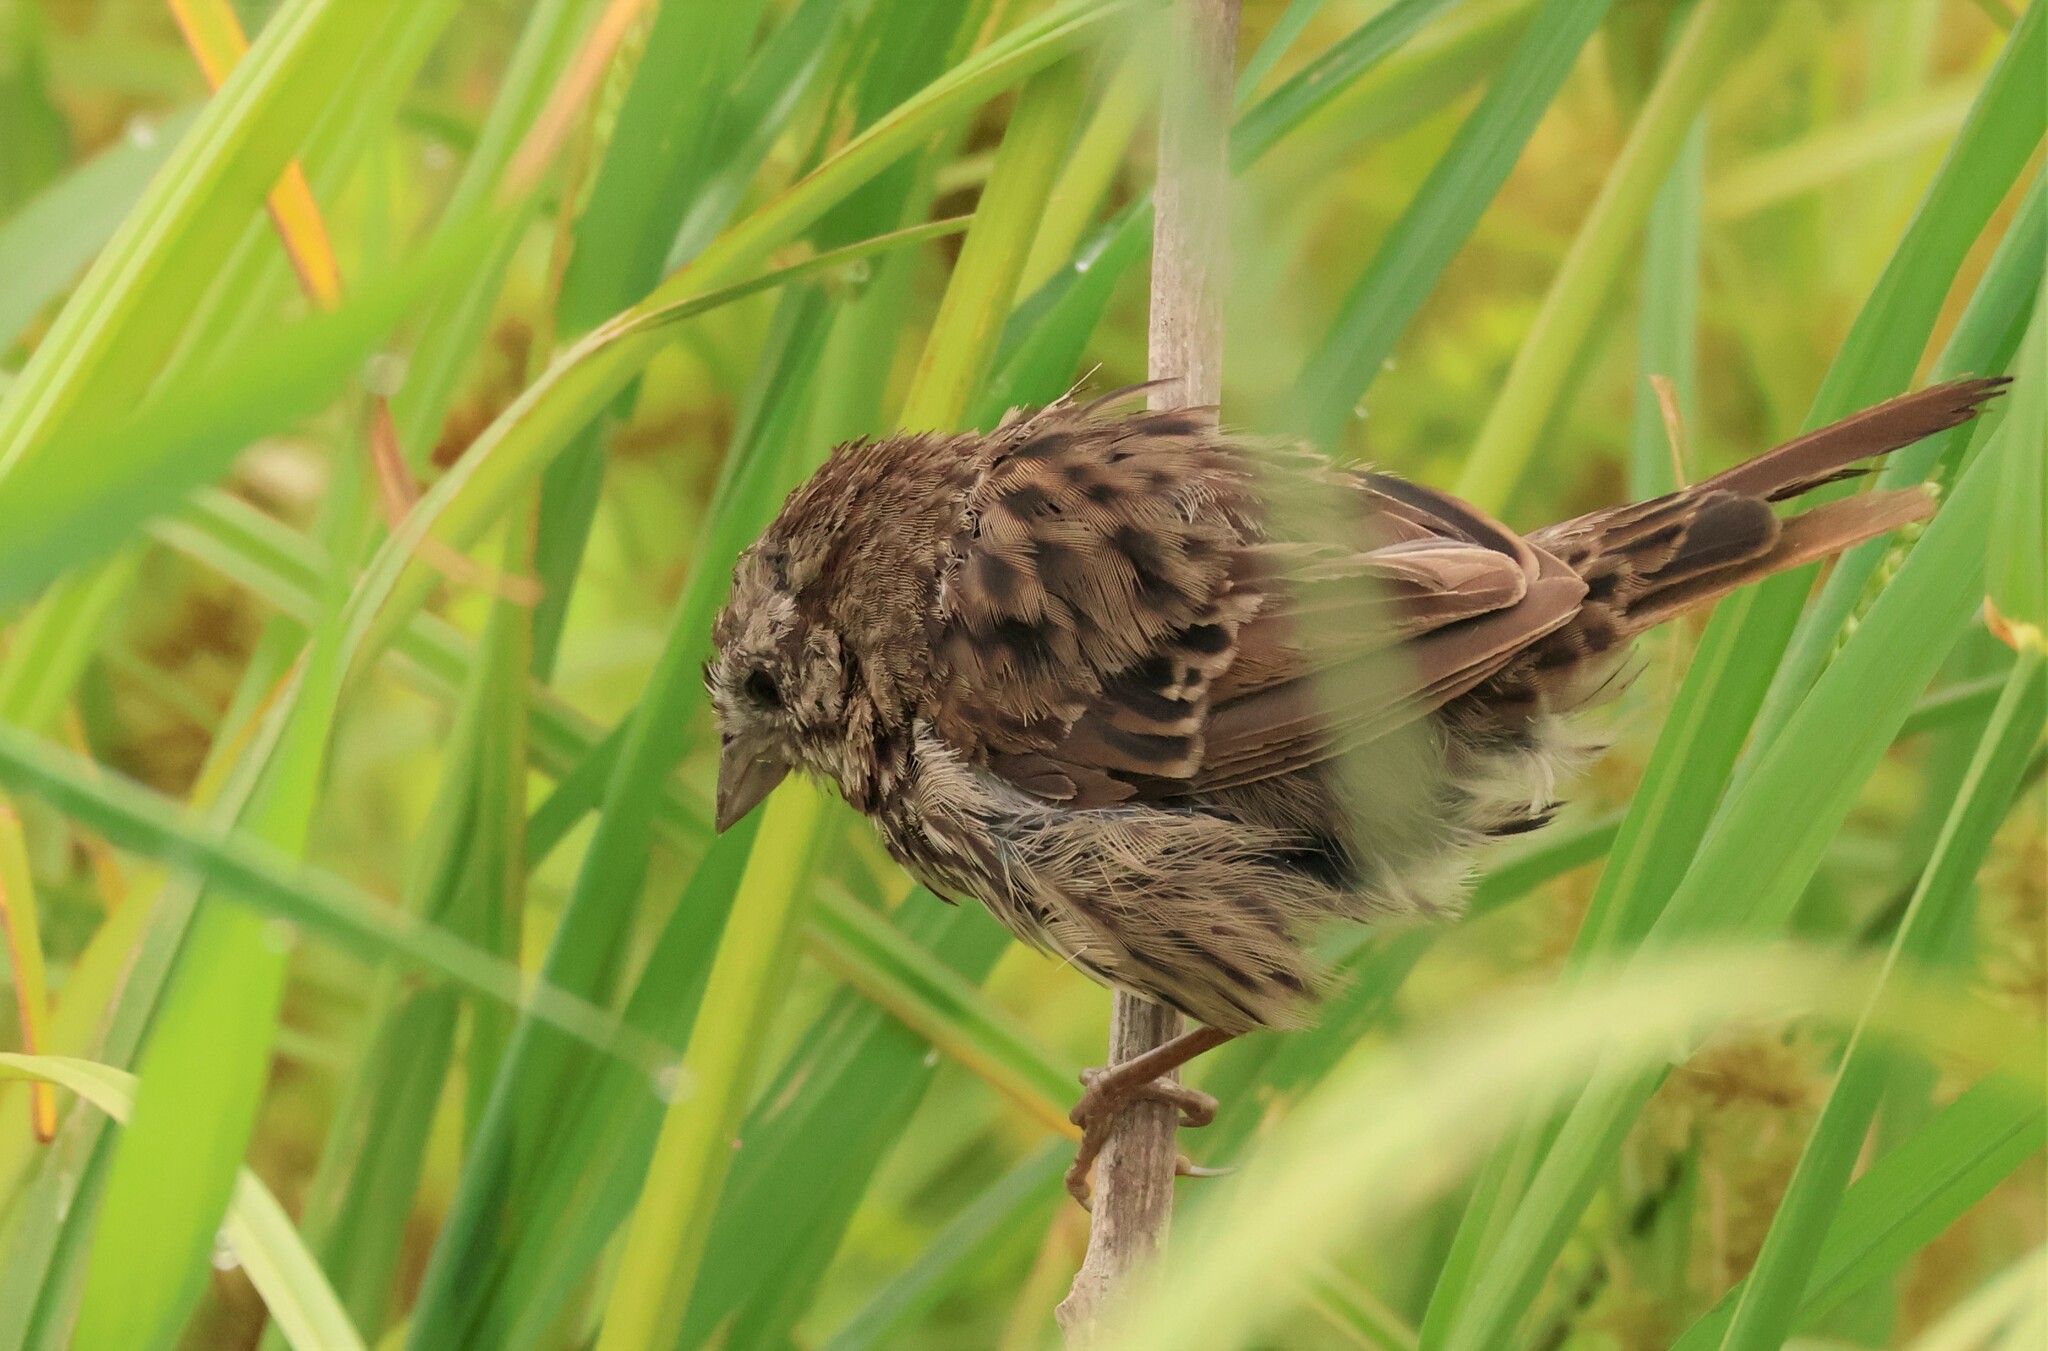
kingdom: Animalia
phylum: Chordata
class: Aves
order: Passeriformes
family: Passerellidae
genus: Melospiza
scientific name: Melospiza melodia
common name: Song sparrow
